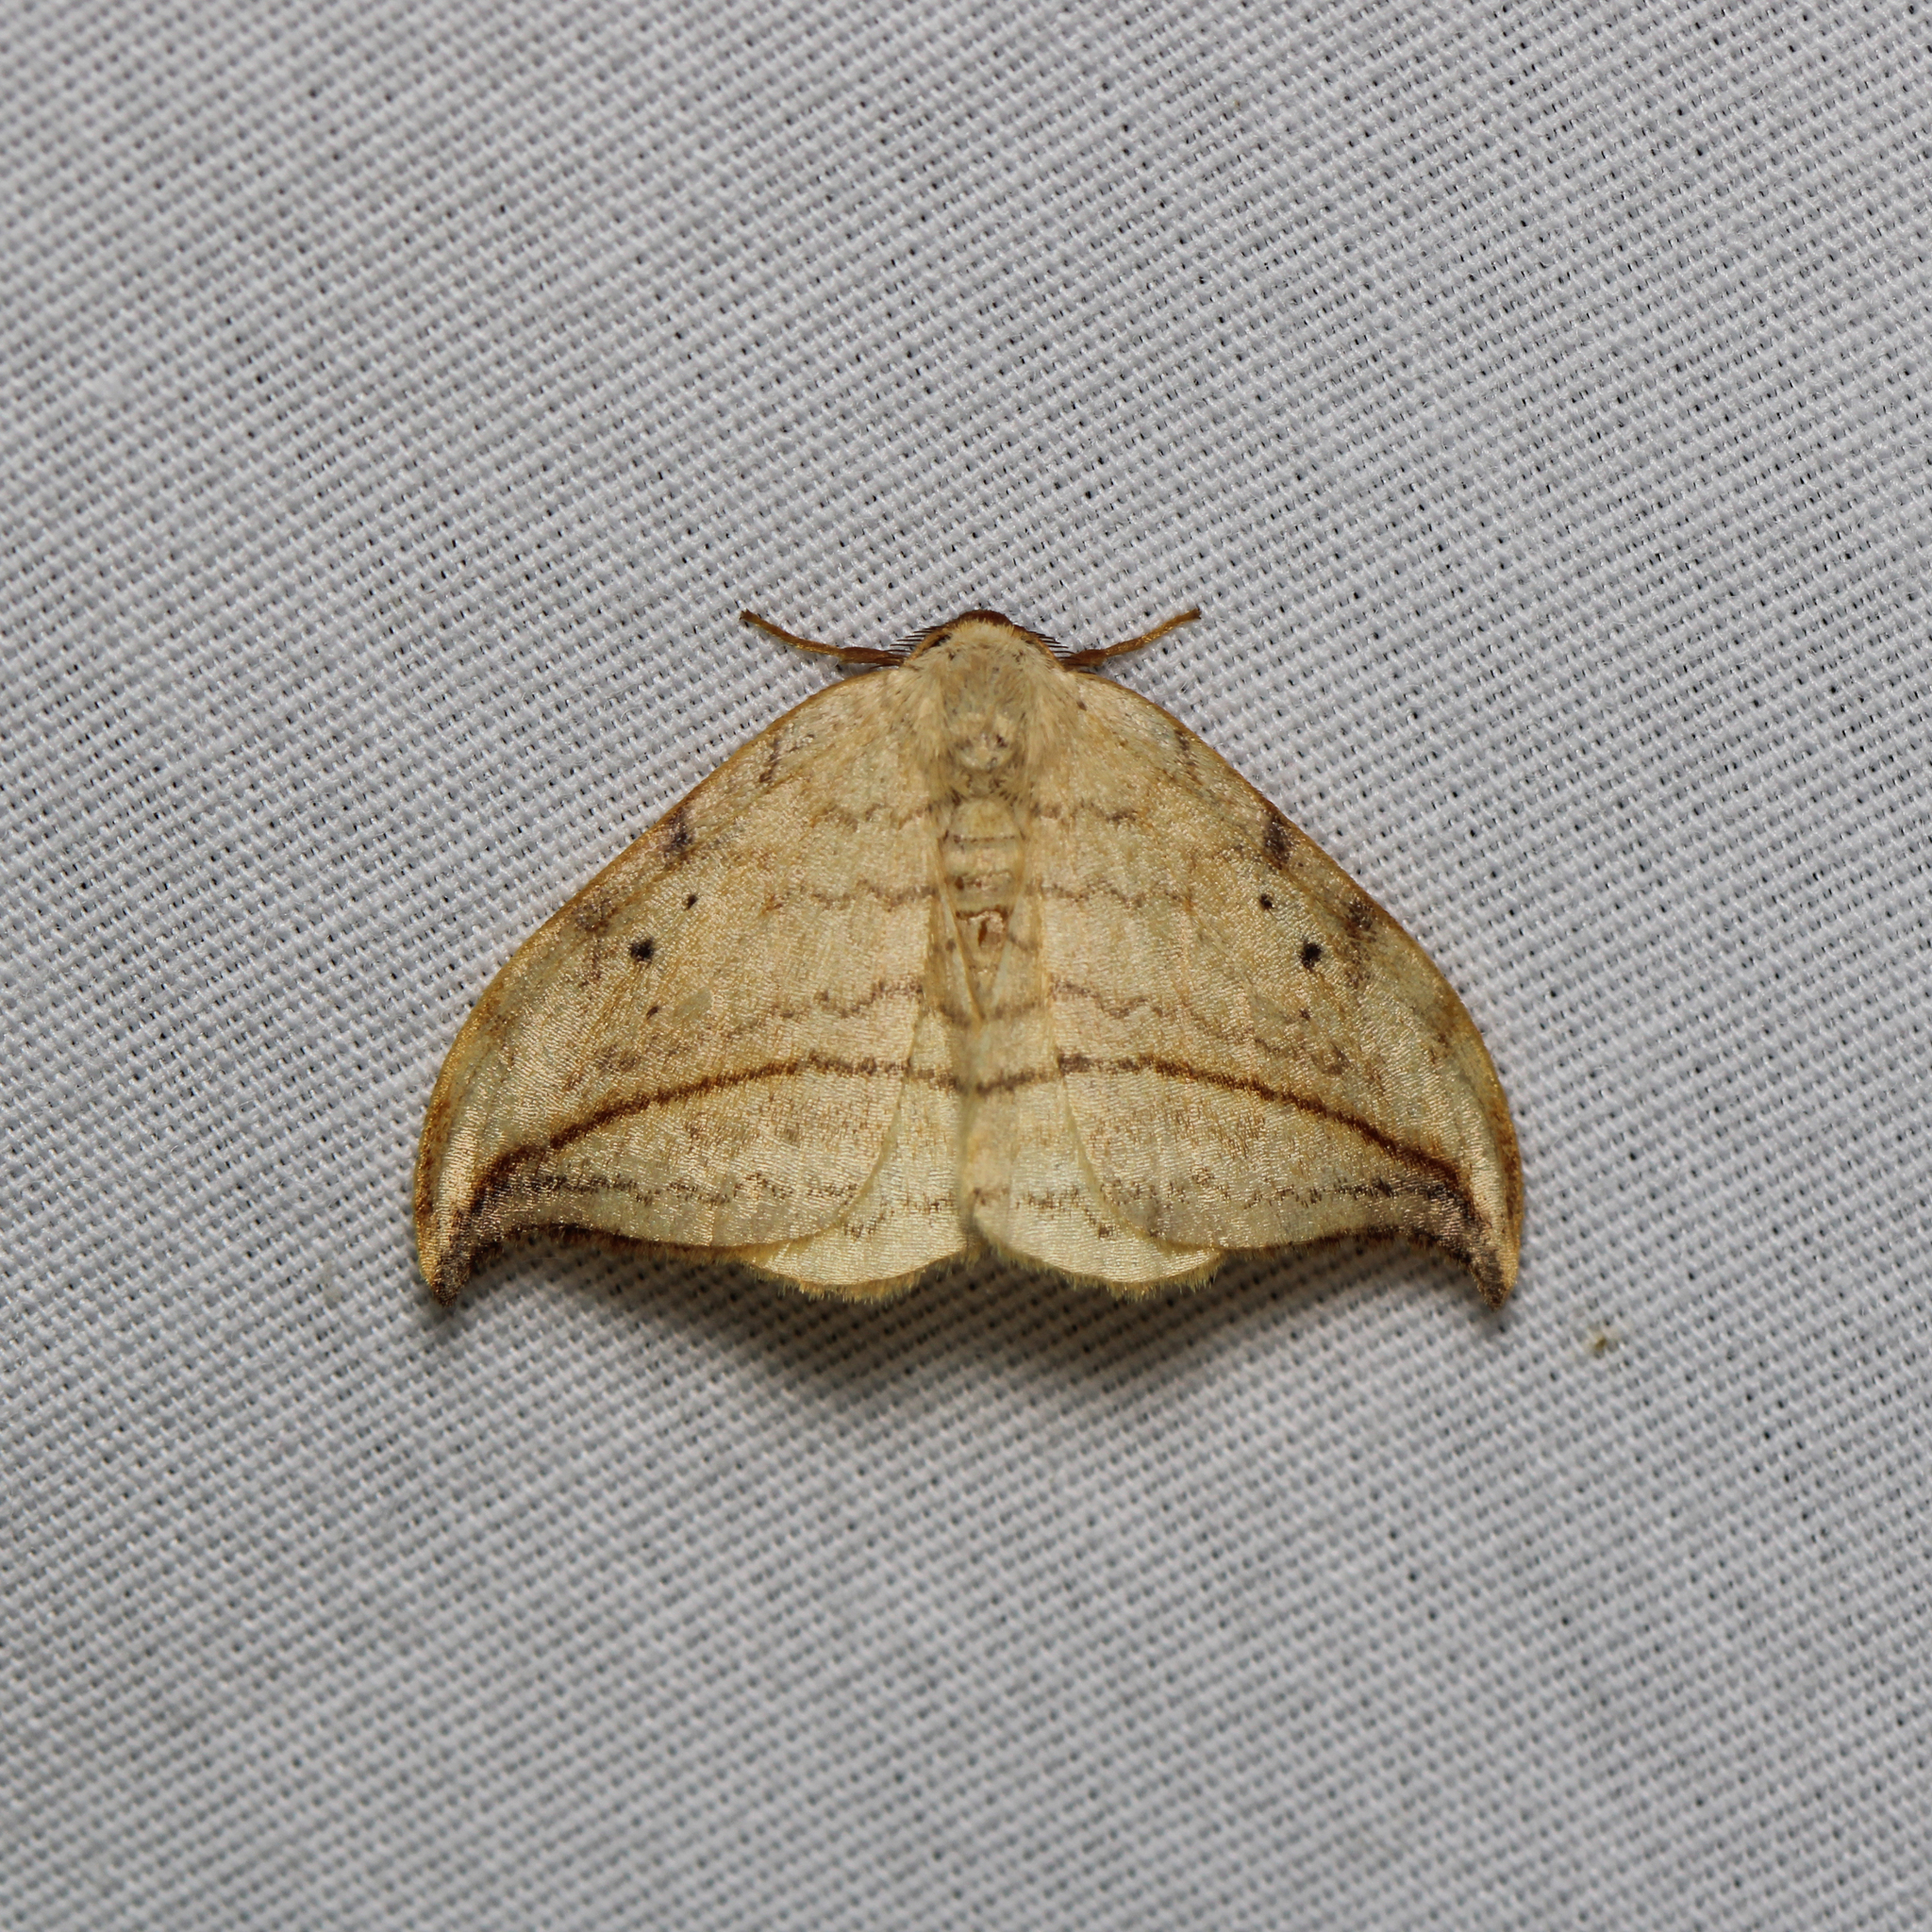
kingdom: Animalia
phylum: Arthropoda
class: Insecta
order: Lepidoptera
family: Drepanidae
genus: Drepana
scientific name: Drepana arcuata
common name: Arched hooktip moth
